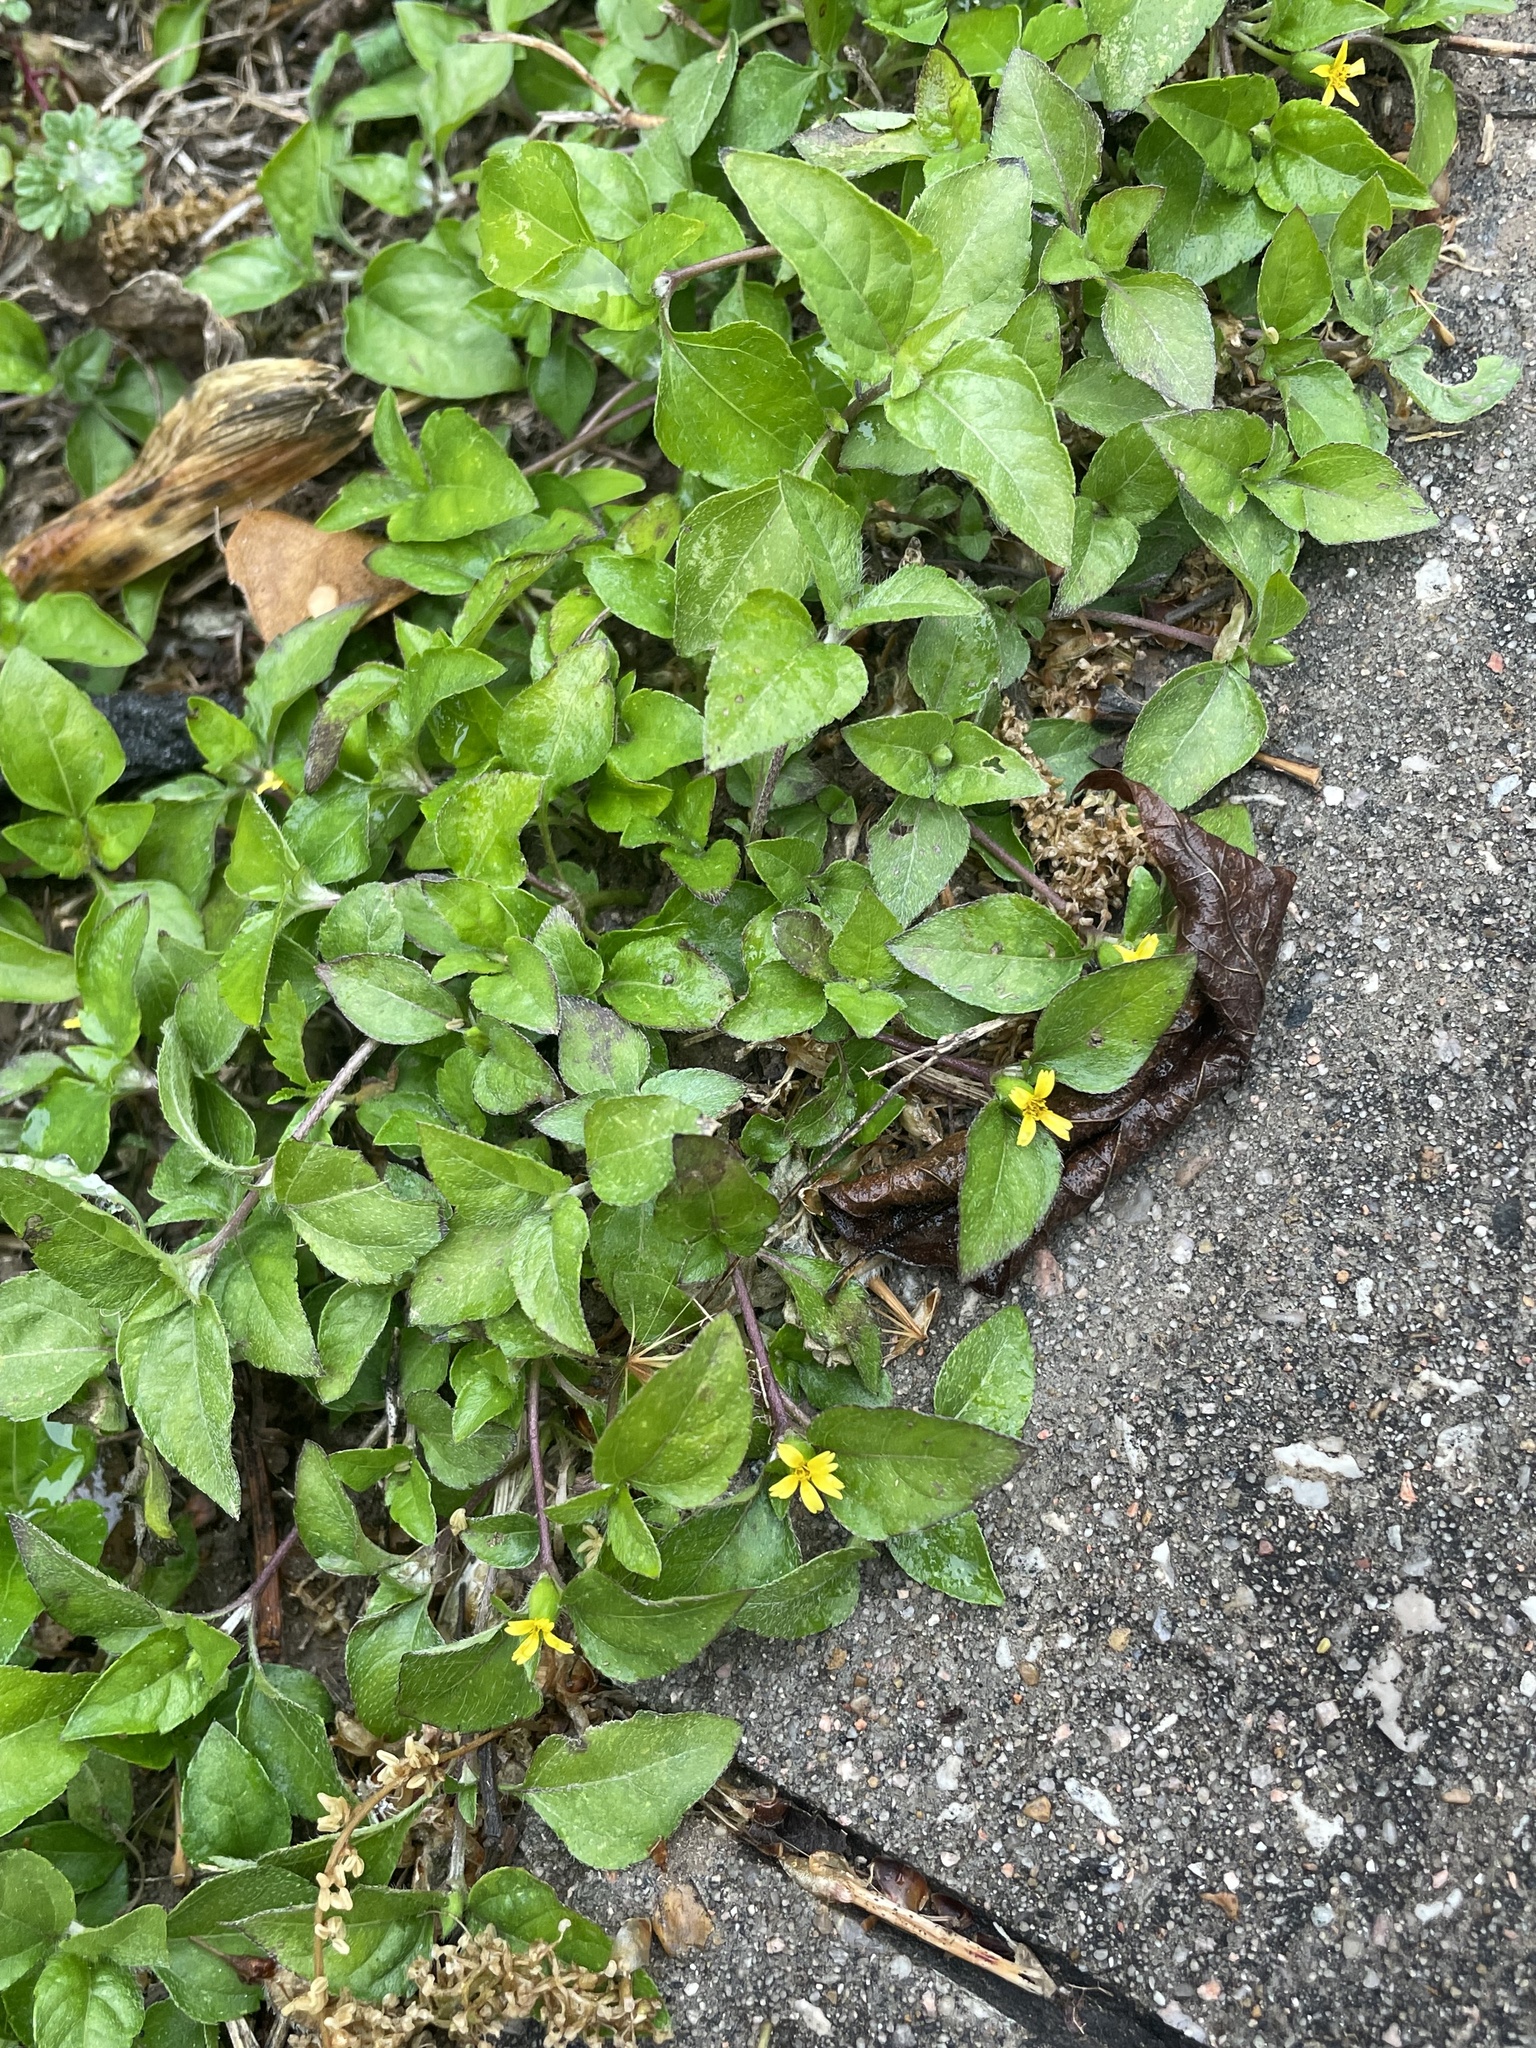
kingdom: Plantae
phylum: Tracheophyta
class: Magnoliopsida
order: Asterales
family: Asteraceae
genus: Calyptocarpus
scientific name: Calyptocarpus vialis
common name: Straggler daisy
